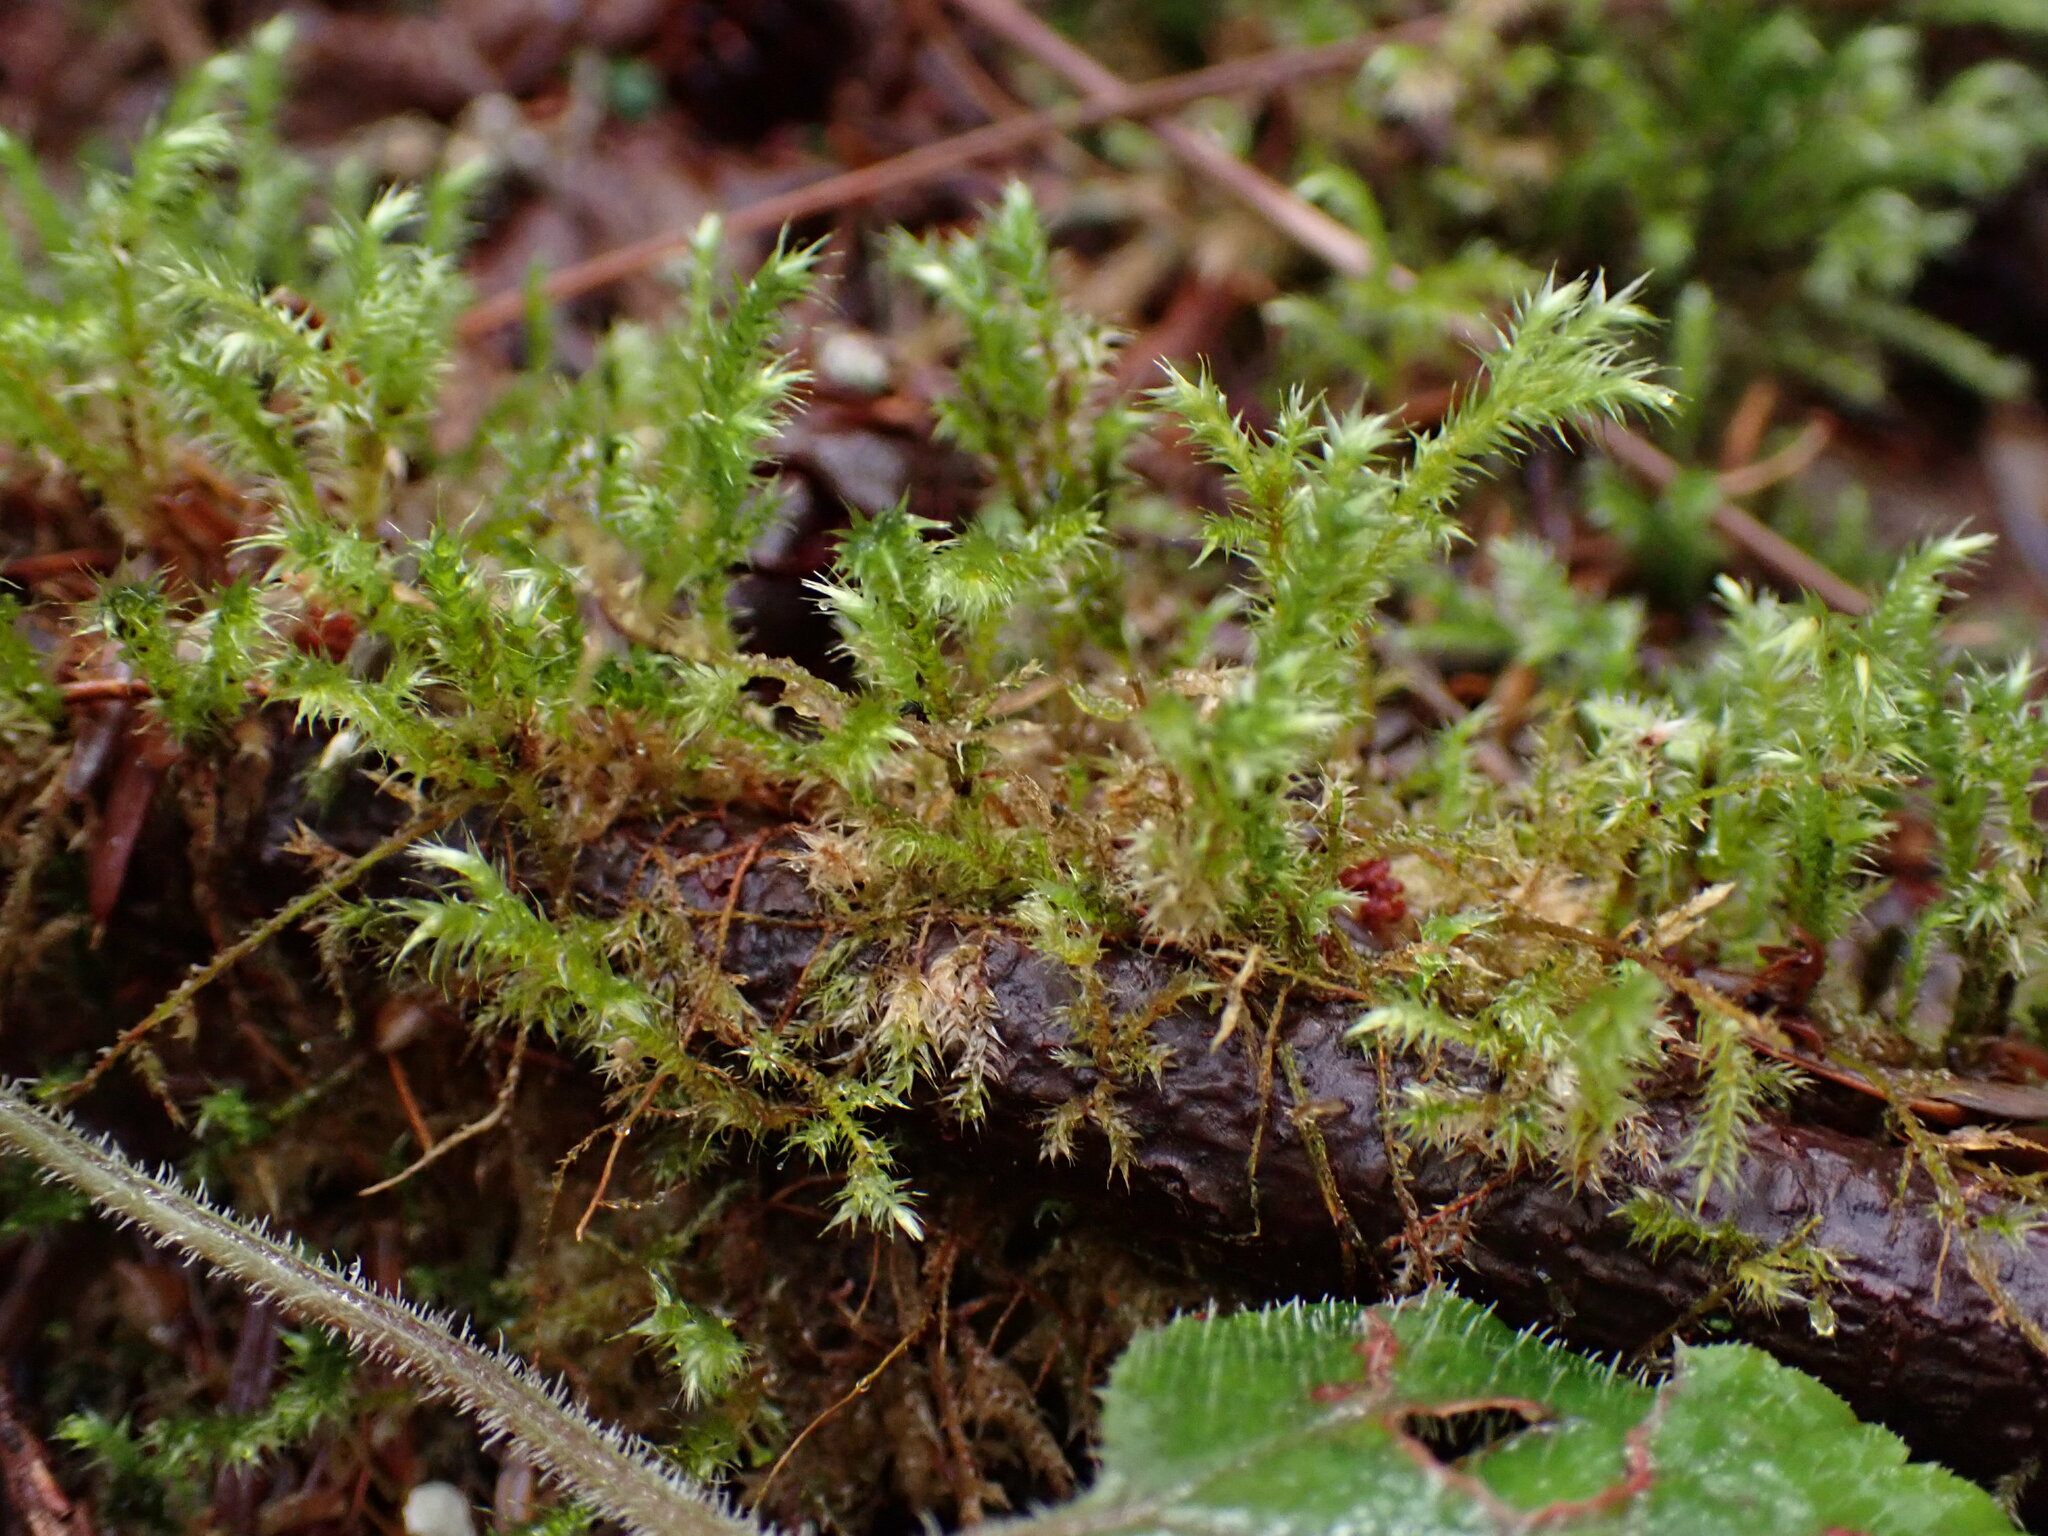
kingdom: Plantae
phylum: Bryophyta
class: Bryopsida
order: Hypnales
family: Hylocomiaceae
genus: Hylocomiadelphus
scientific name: Hylocomiadelphus triquetrus
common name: Rough goose neck moss
